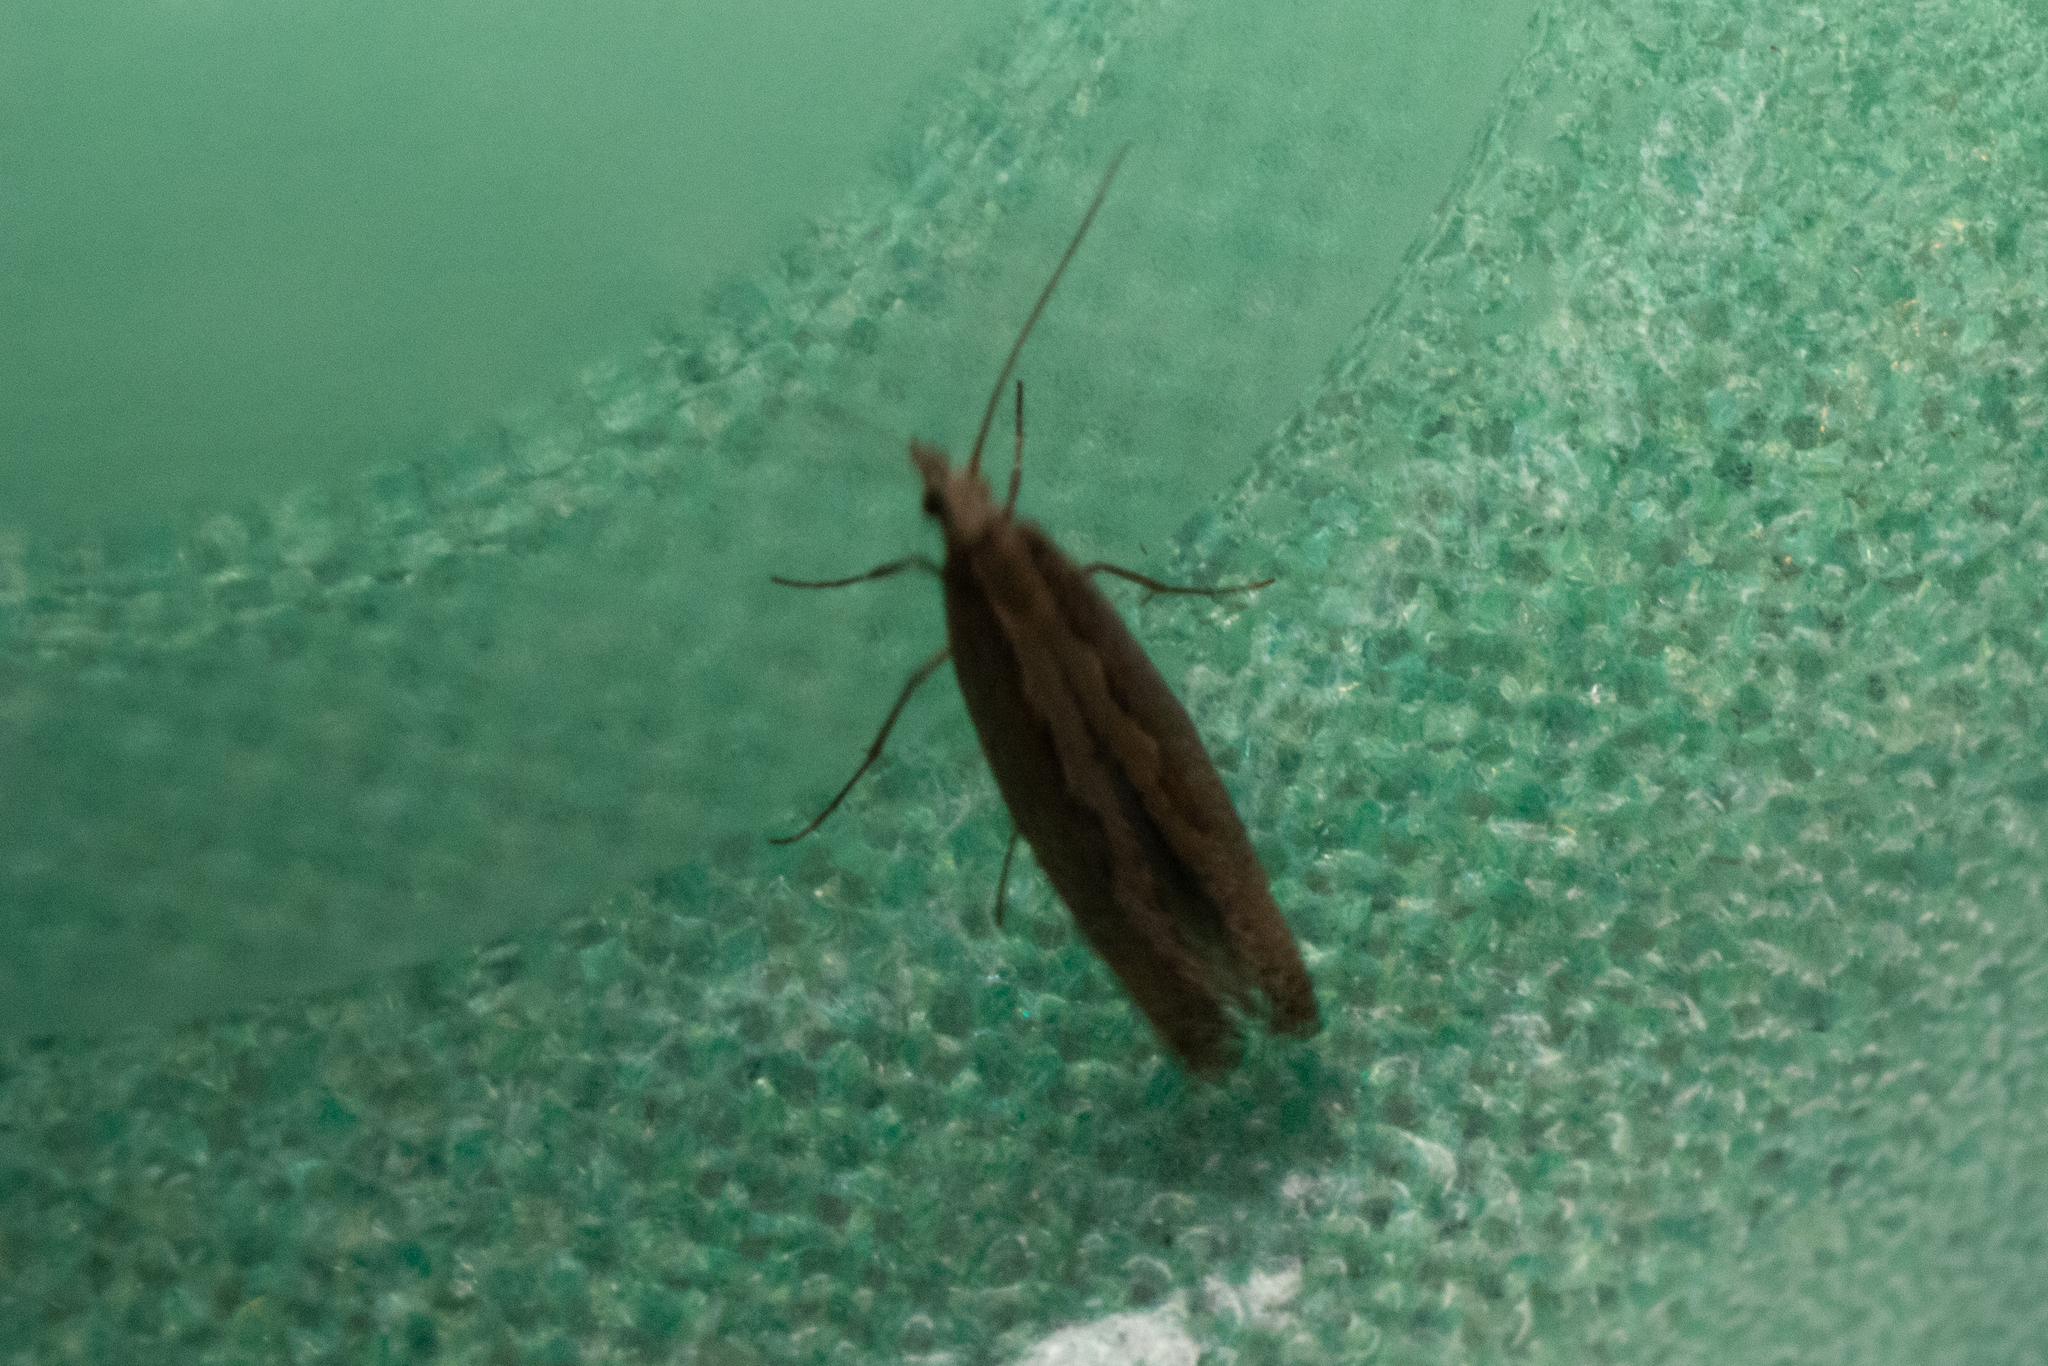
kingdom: Animalia
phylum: Arthropoda
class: Insecta
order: Lepidoptera
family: Plutellidae
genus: Plutella
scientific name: Plutella xylostella
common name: Diamond-back moth
